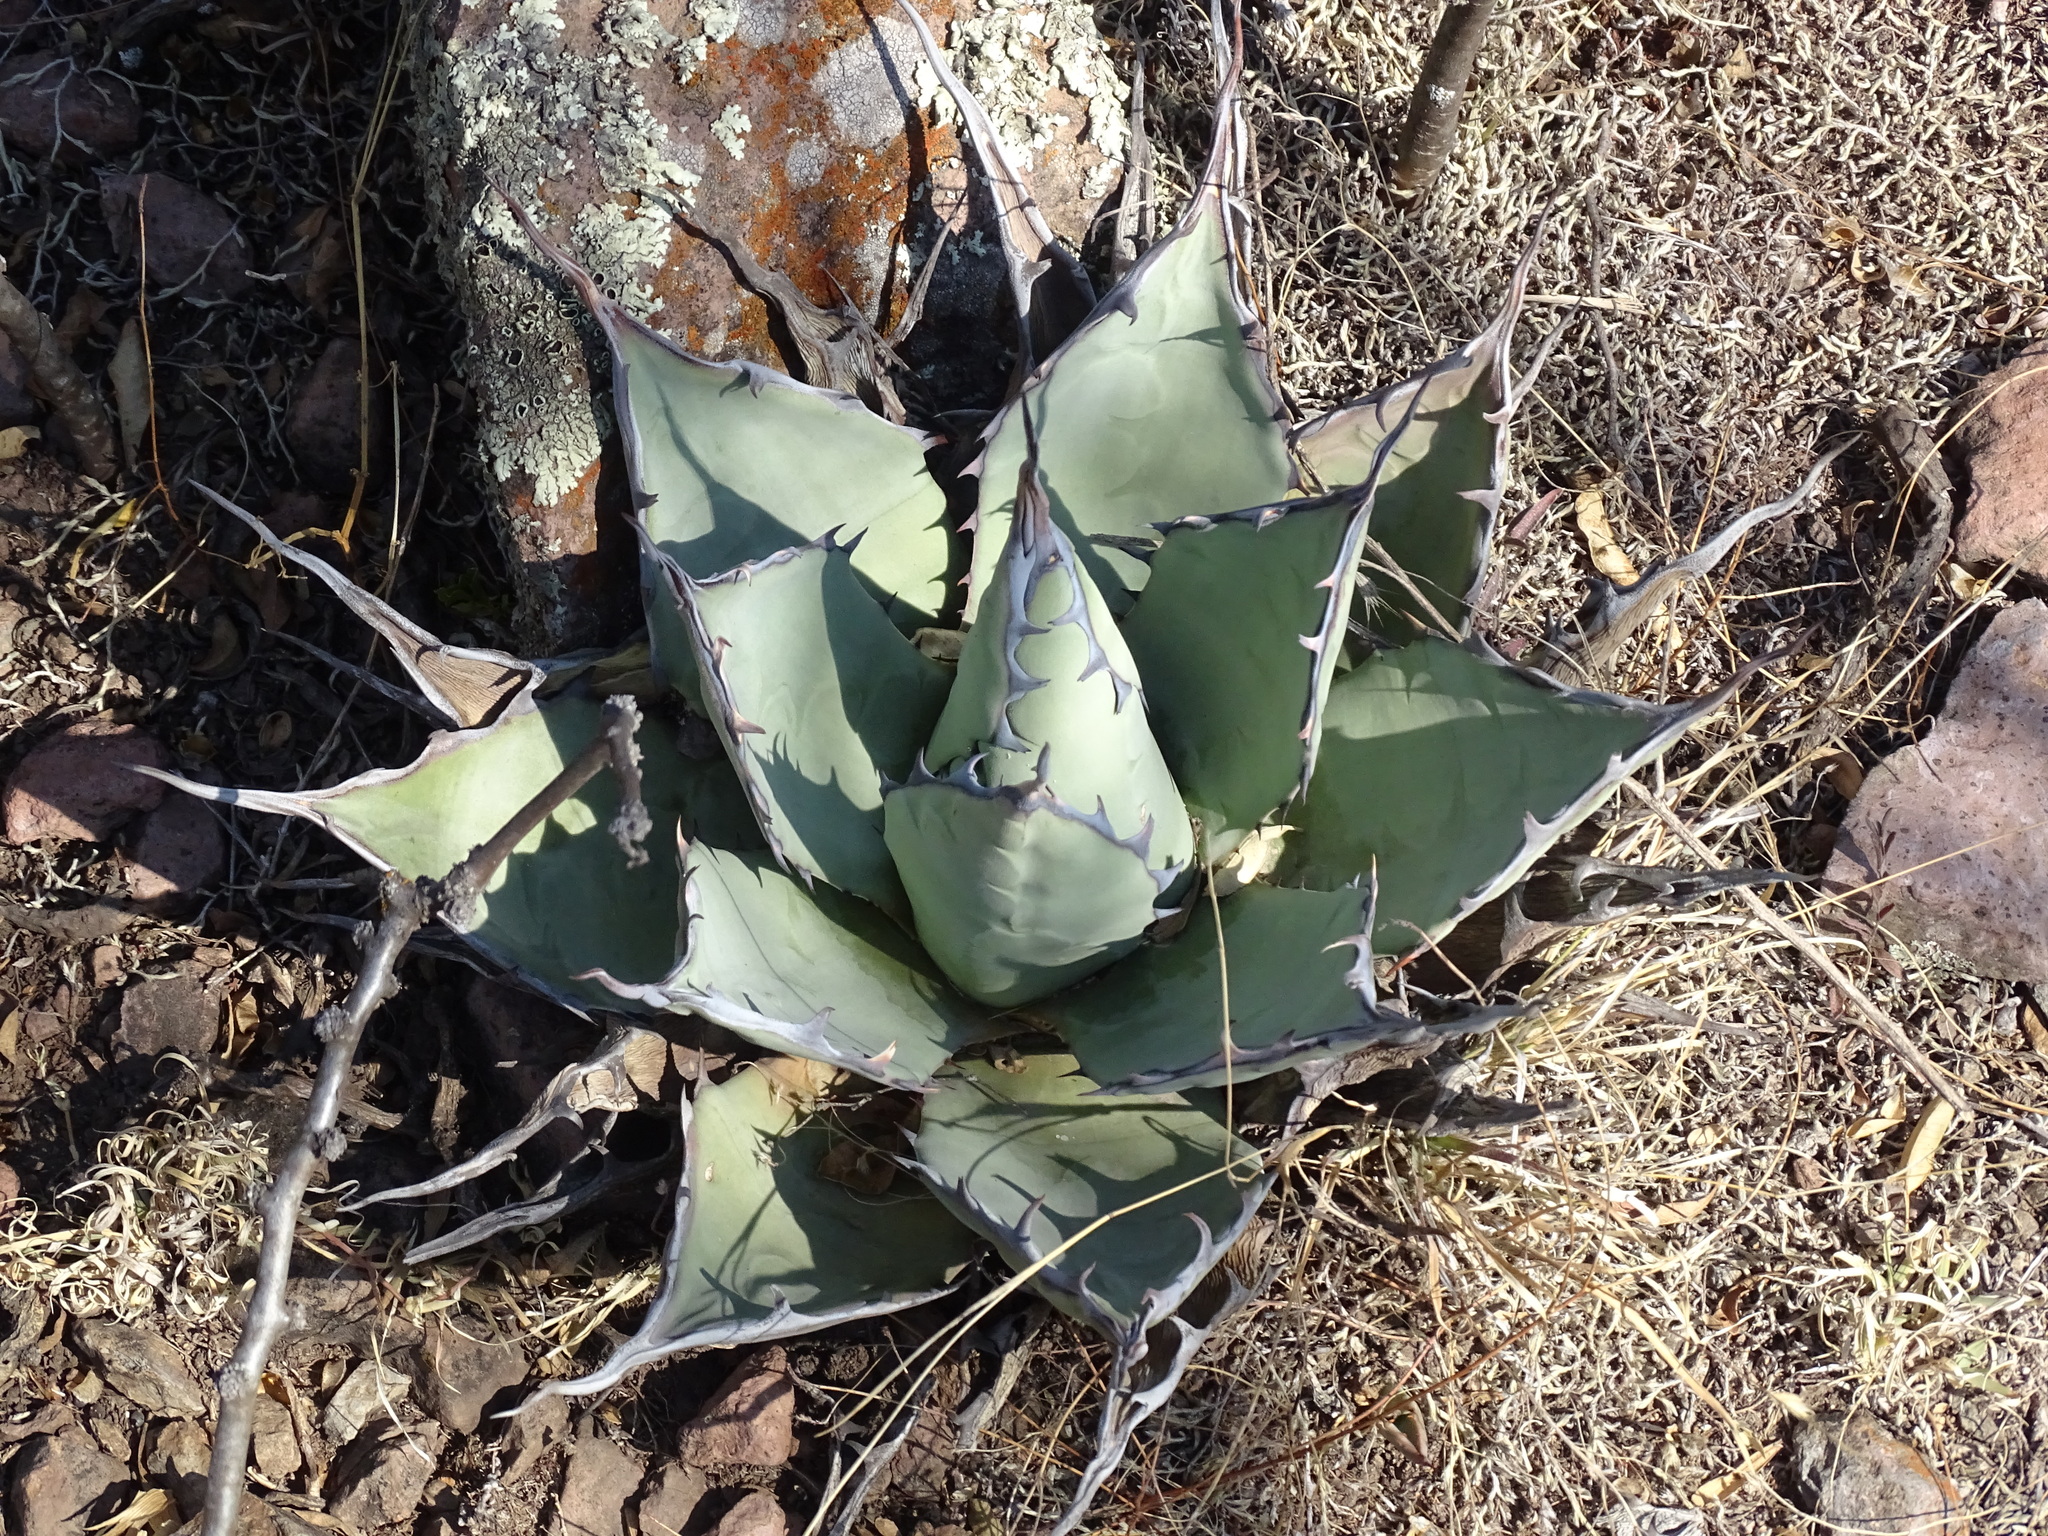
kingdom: Plantae
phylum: Tracheophyta
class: Liliopsida
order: Asparagales
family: Asparagaceae
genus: Agave
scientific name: Agave applanata
